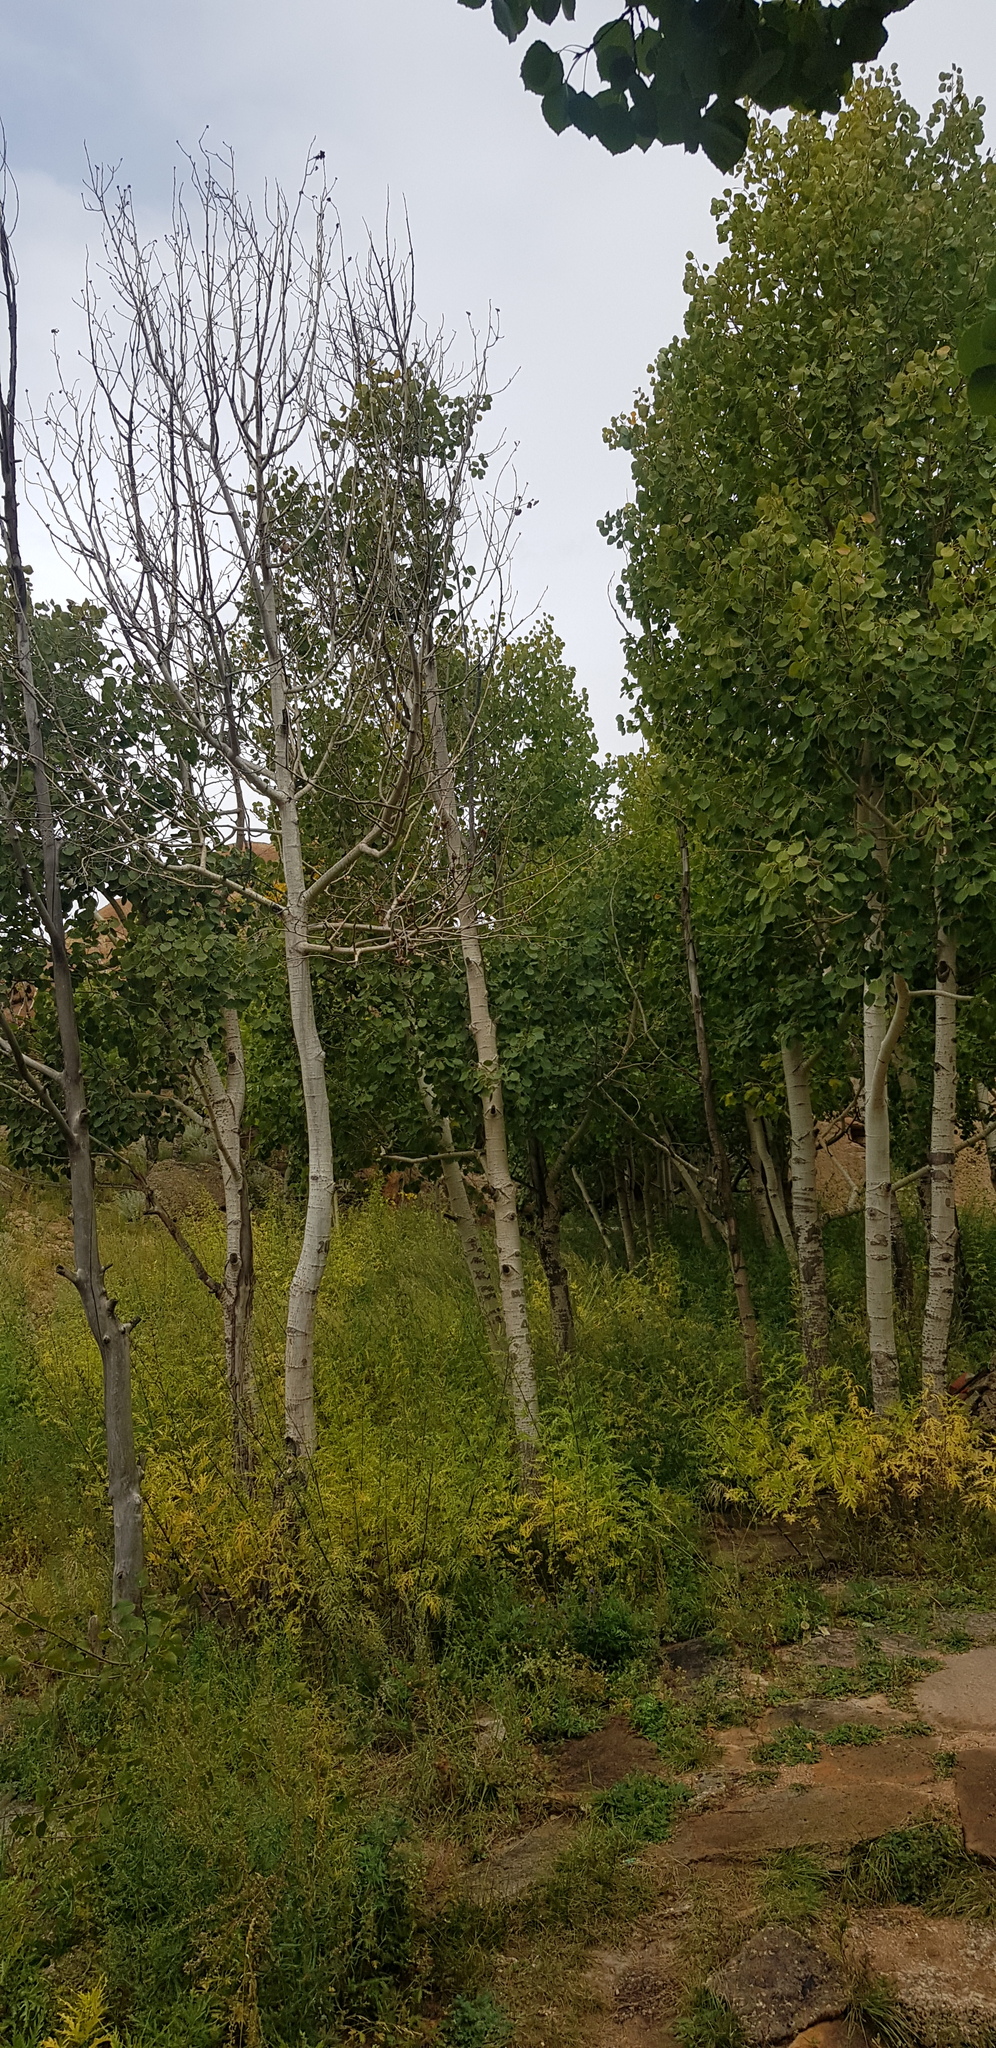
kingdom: Plantae
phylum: Tracheophyta
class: Magnoliopsida
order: Fagales
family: Betulaceae
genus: Betula
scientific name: Betula pendula
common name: Silver birch
